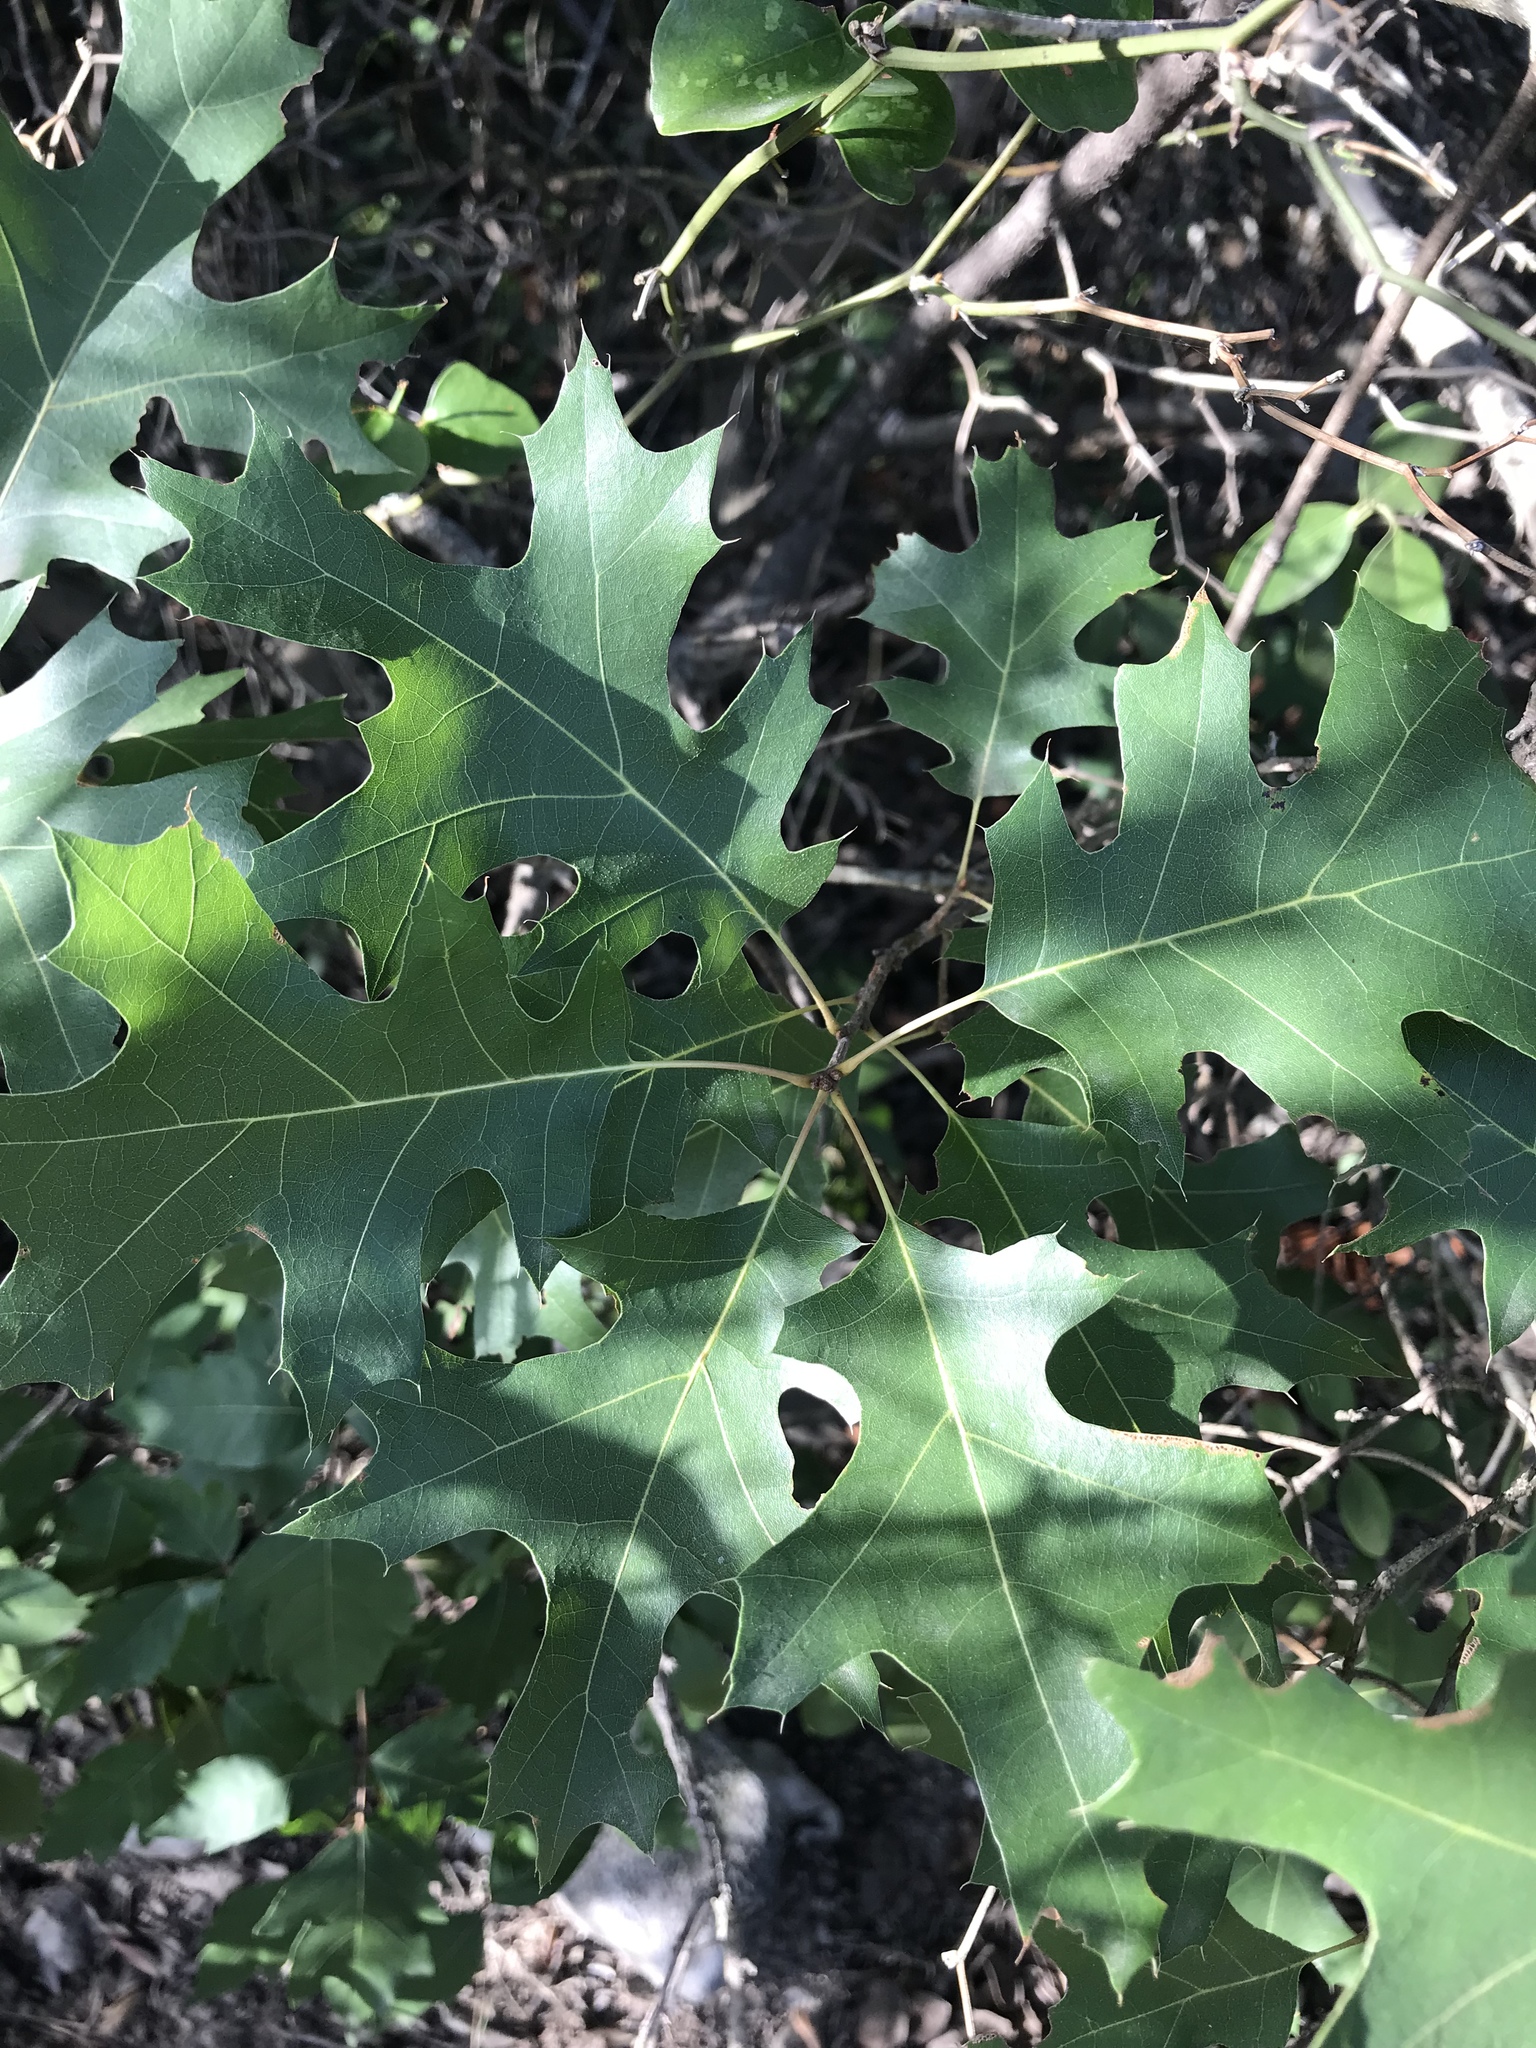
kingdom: Plantae
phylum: Tracheophyta
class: Magnoliopsida
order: Fagales
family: Fagaceae
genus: Quercus
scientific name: Quercus buckleyi
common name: Buckley oak
